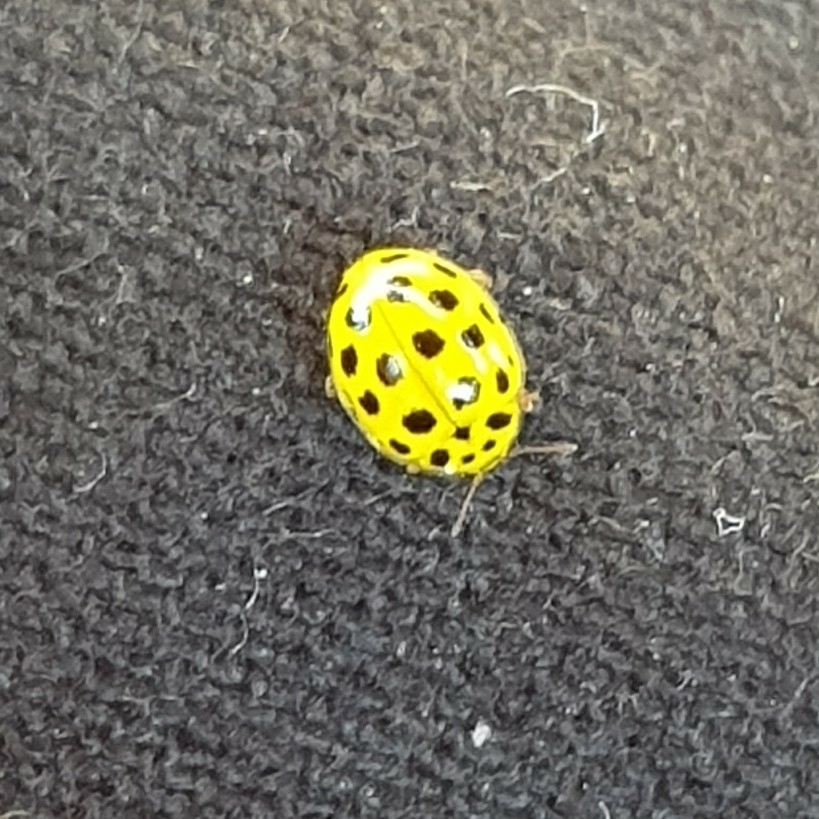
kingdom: Animalia
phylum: Arthropoda
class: Insecta
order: Coleoptera
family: Coccinellidae
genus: Psyllobora
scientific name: Psyllobora vigintiduopunctata
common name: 22-spot ladybird
